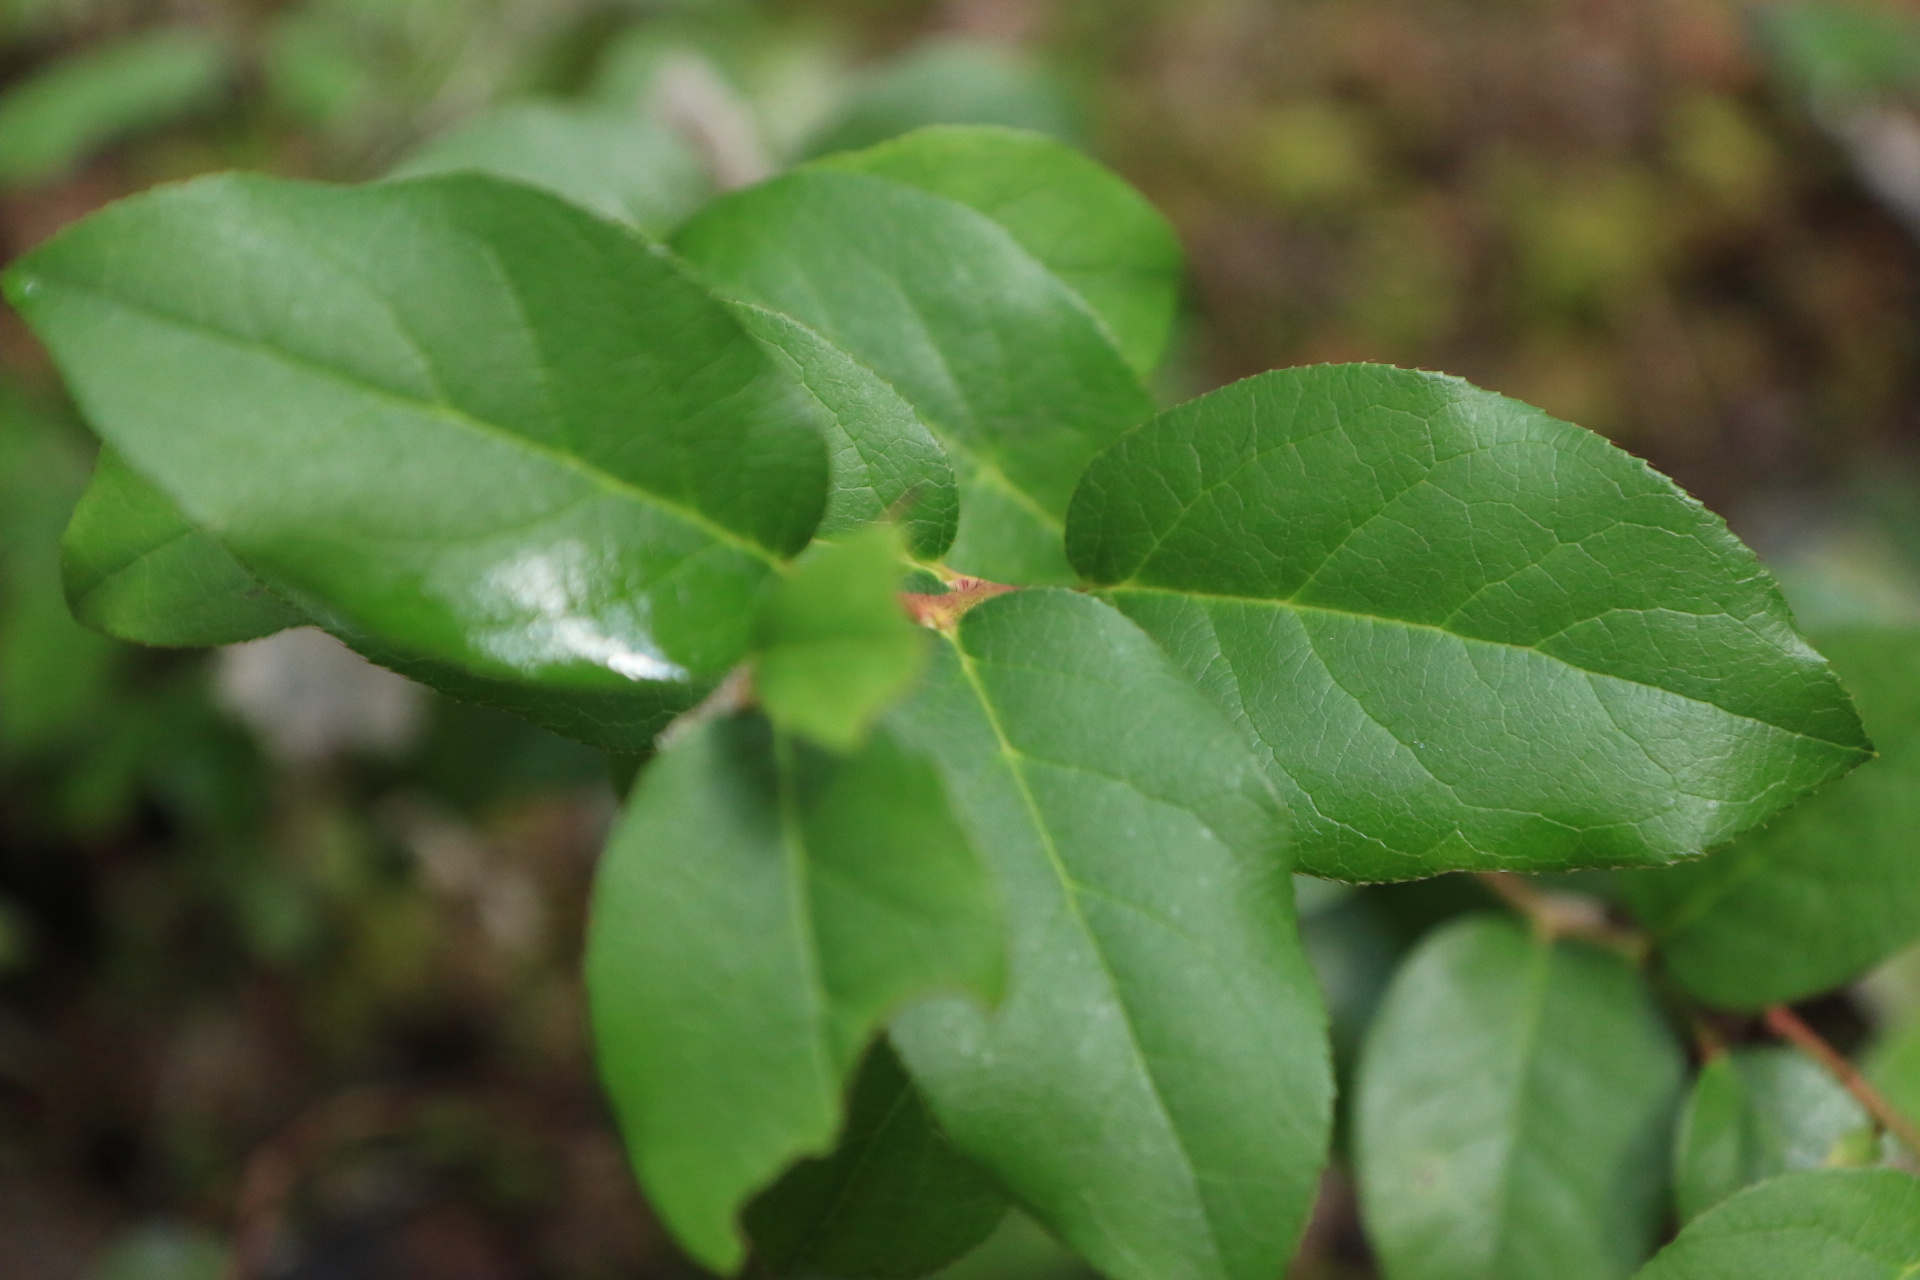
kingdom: Plantae
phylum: Tracheophyta
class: Magnoliopsida
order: Ericales
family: Ericaceae
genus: Gaultheria
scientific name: Gaultheria shallon
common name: Shallon
